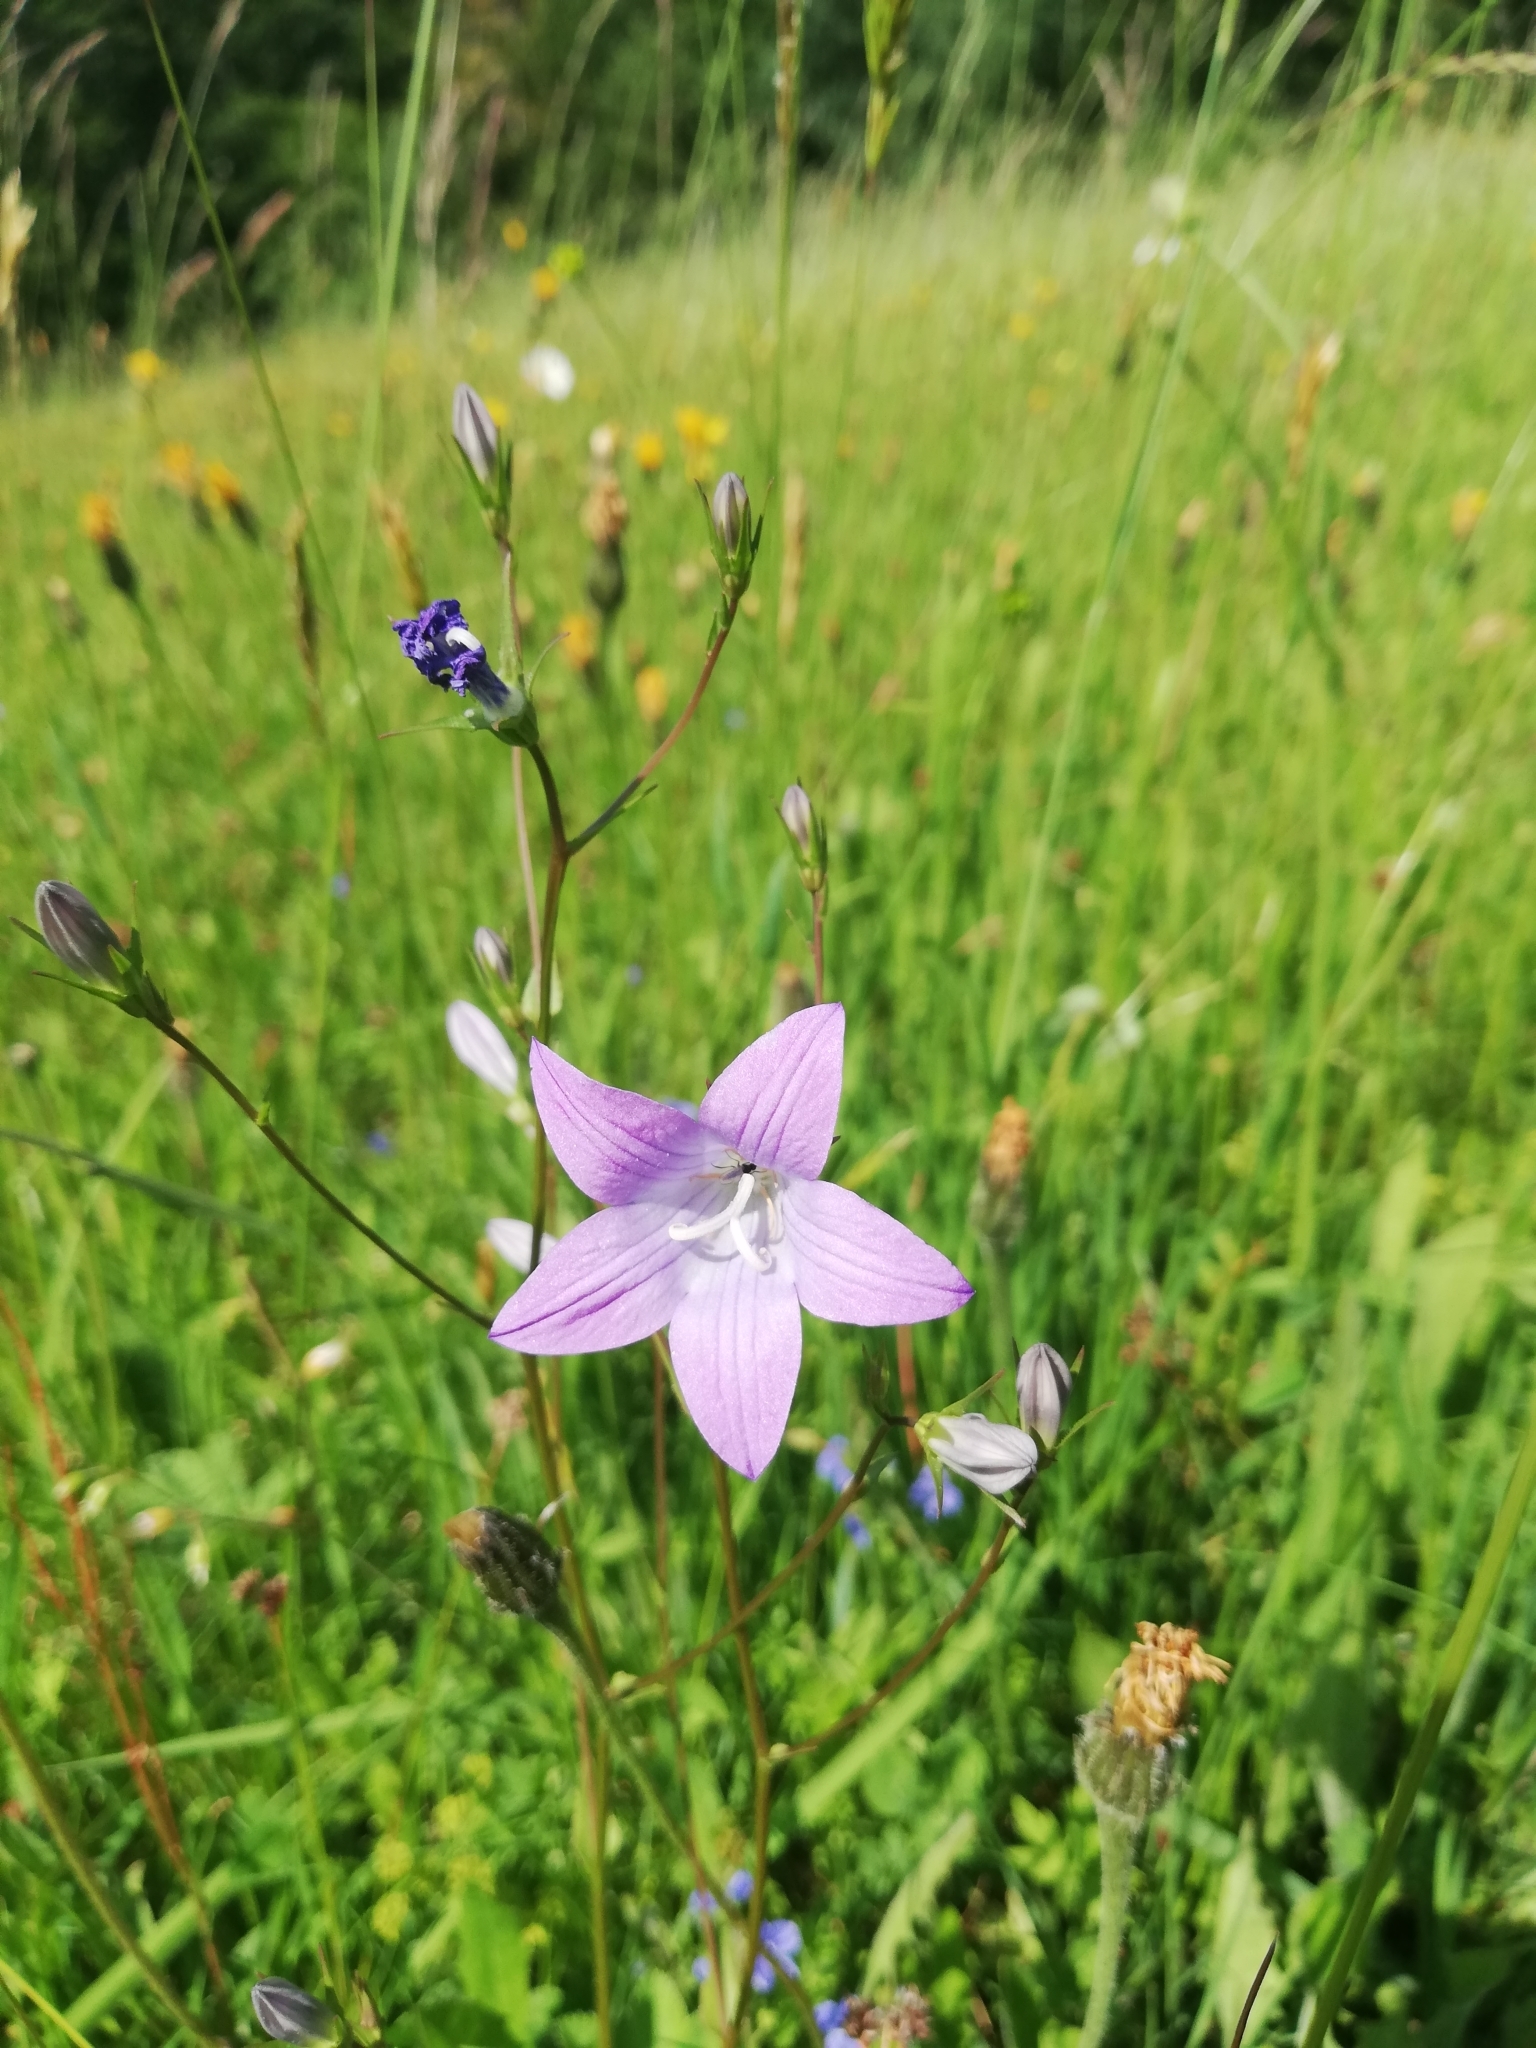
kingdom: Plantae
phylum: Tracheophyta
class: Magnoliopsida
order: Asterales
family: Campanulaceae
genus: Campanula
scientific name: Campanula patula
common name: Spreading bellflower
